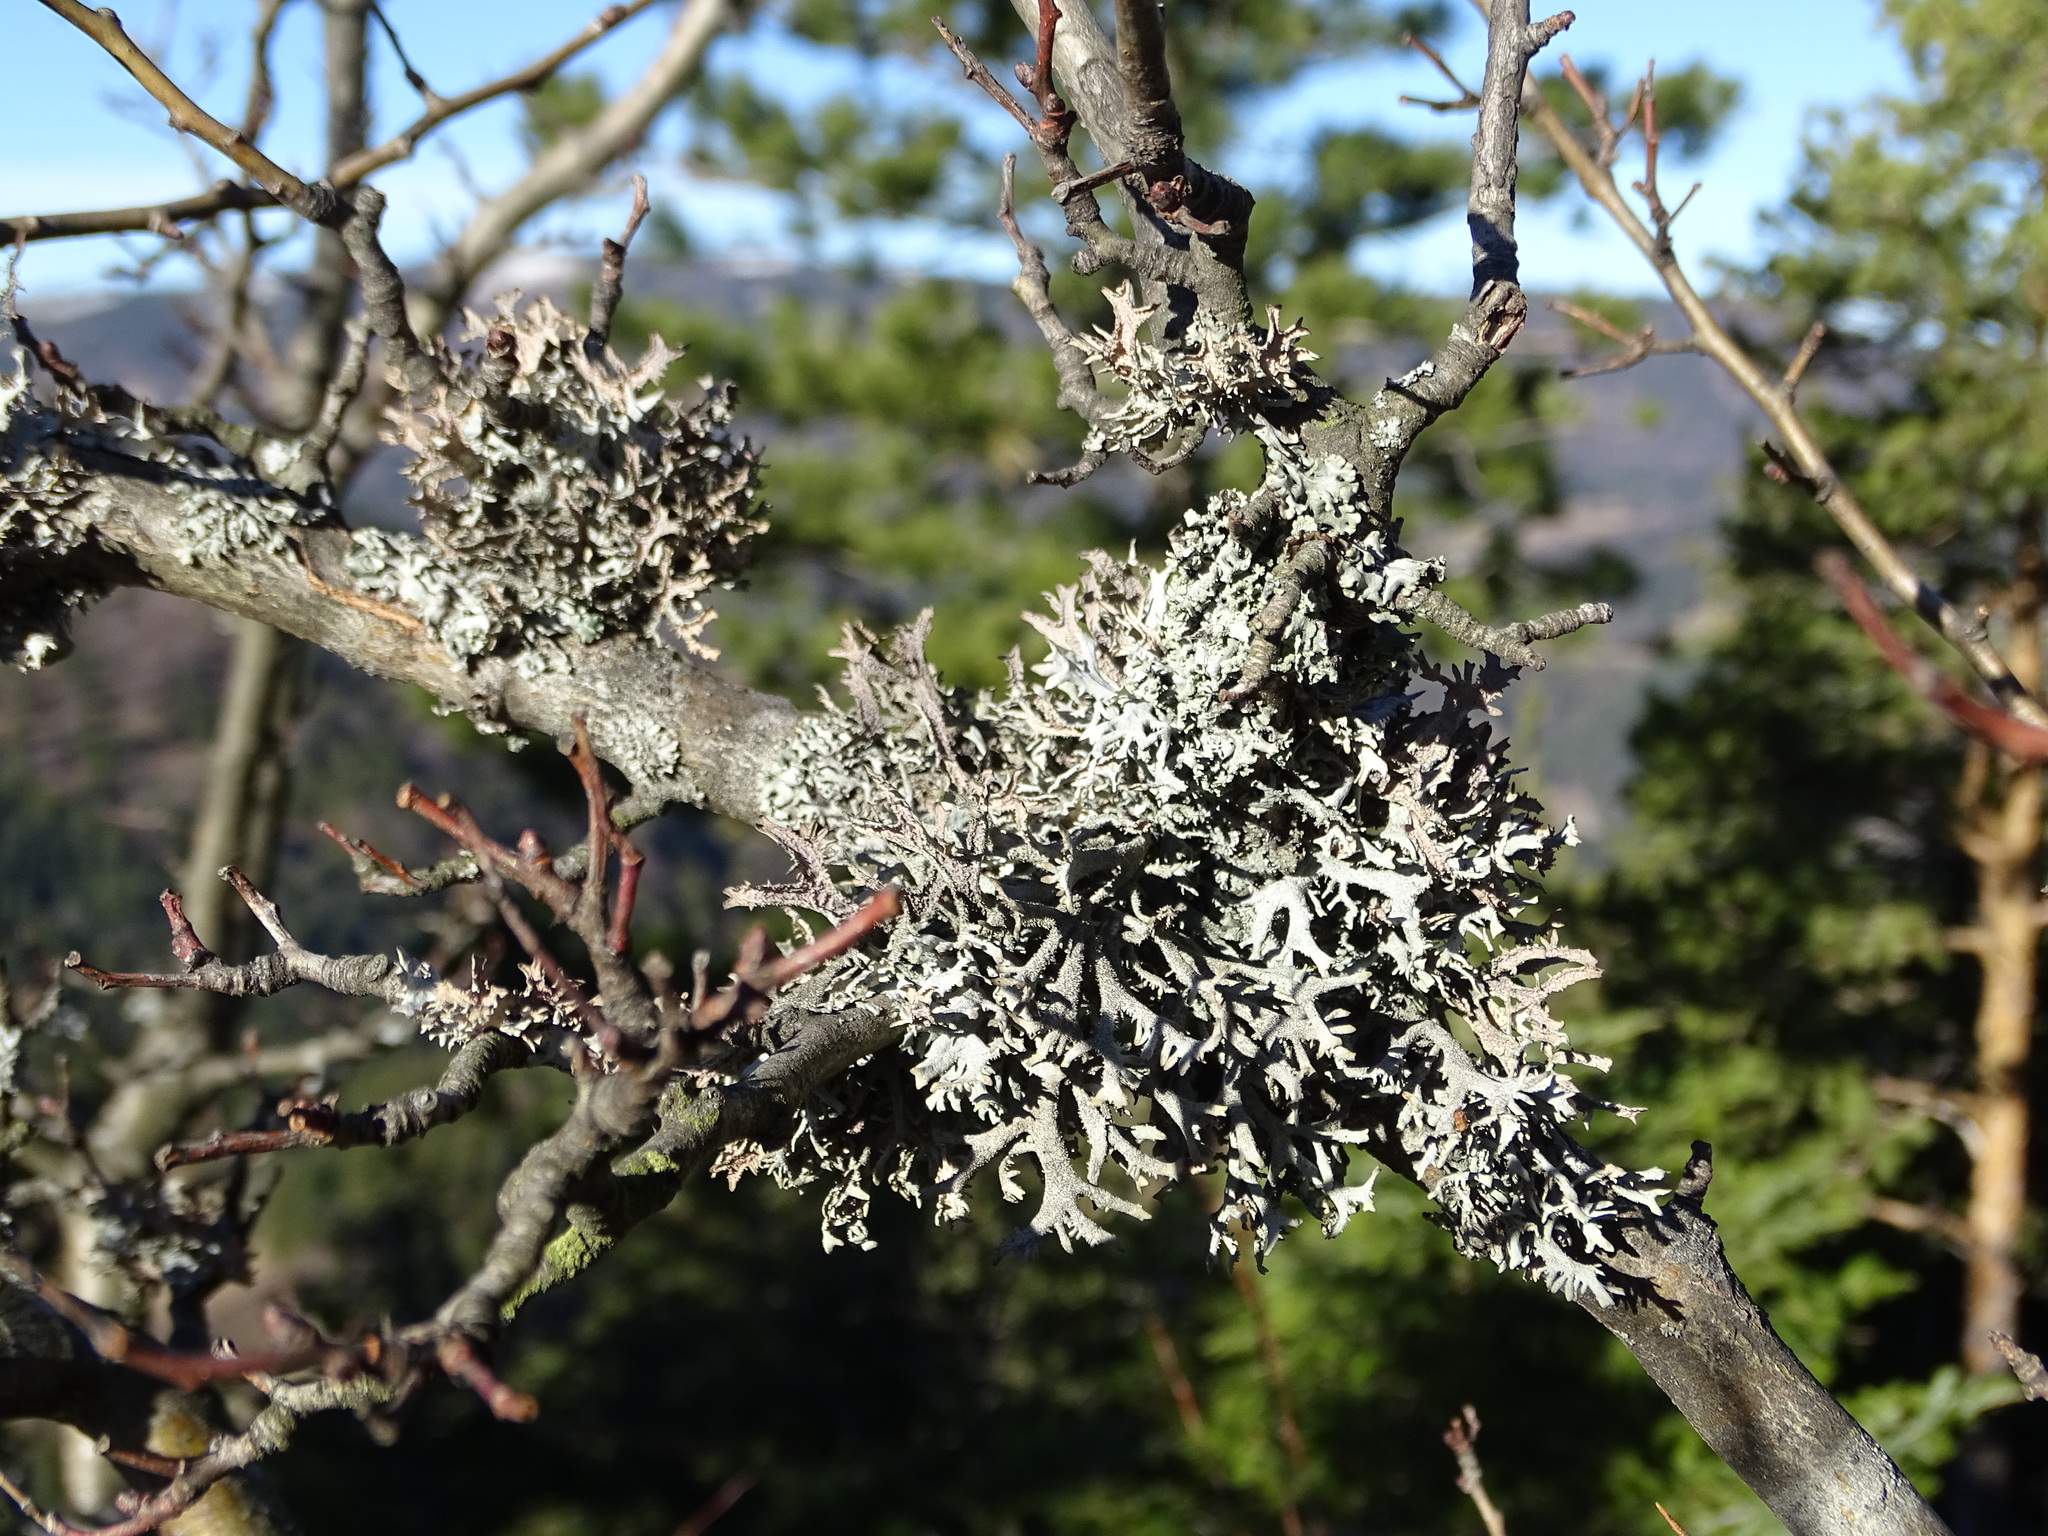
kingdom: Fungi
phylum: Ascomycota
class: Lecanoromycetes
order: Lecanorales
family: Parmeliaceae
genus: Pseudevernia
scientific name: Pseudevernia furfuracea
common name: Tree moss
